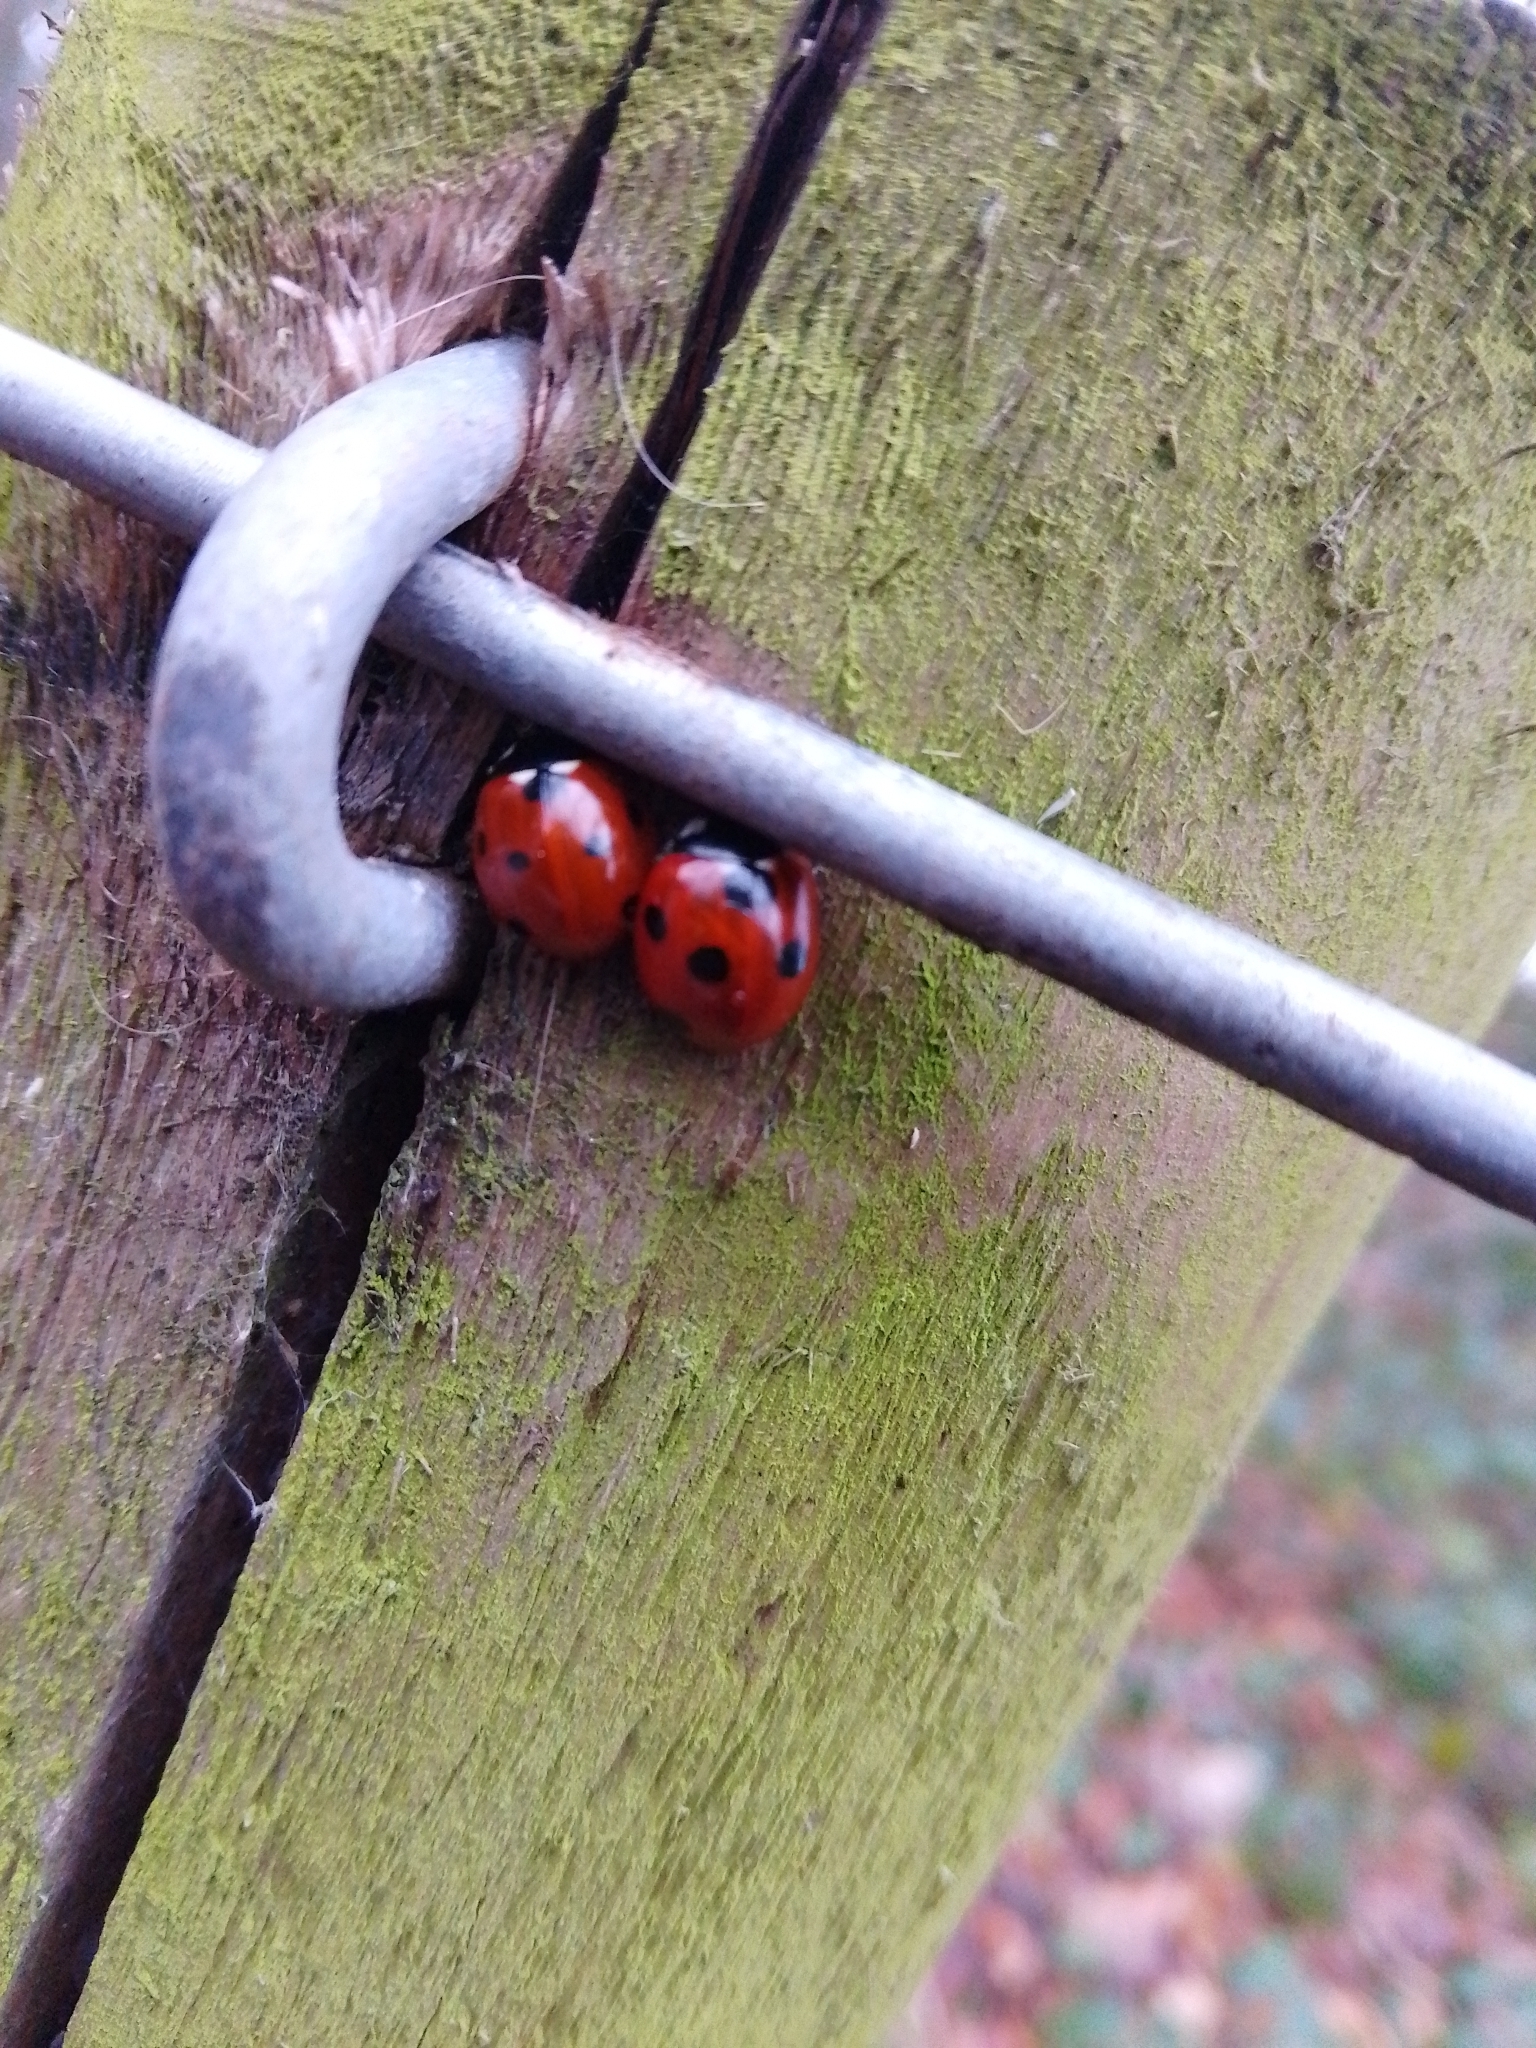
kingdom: Animalia
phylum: Arthropoda
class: Insecta
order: Coleoptera
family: Coccinellidae
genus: Coccinella
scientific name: Coccinella septempunctata
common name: Sevenspotted lady beetle
